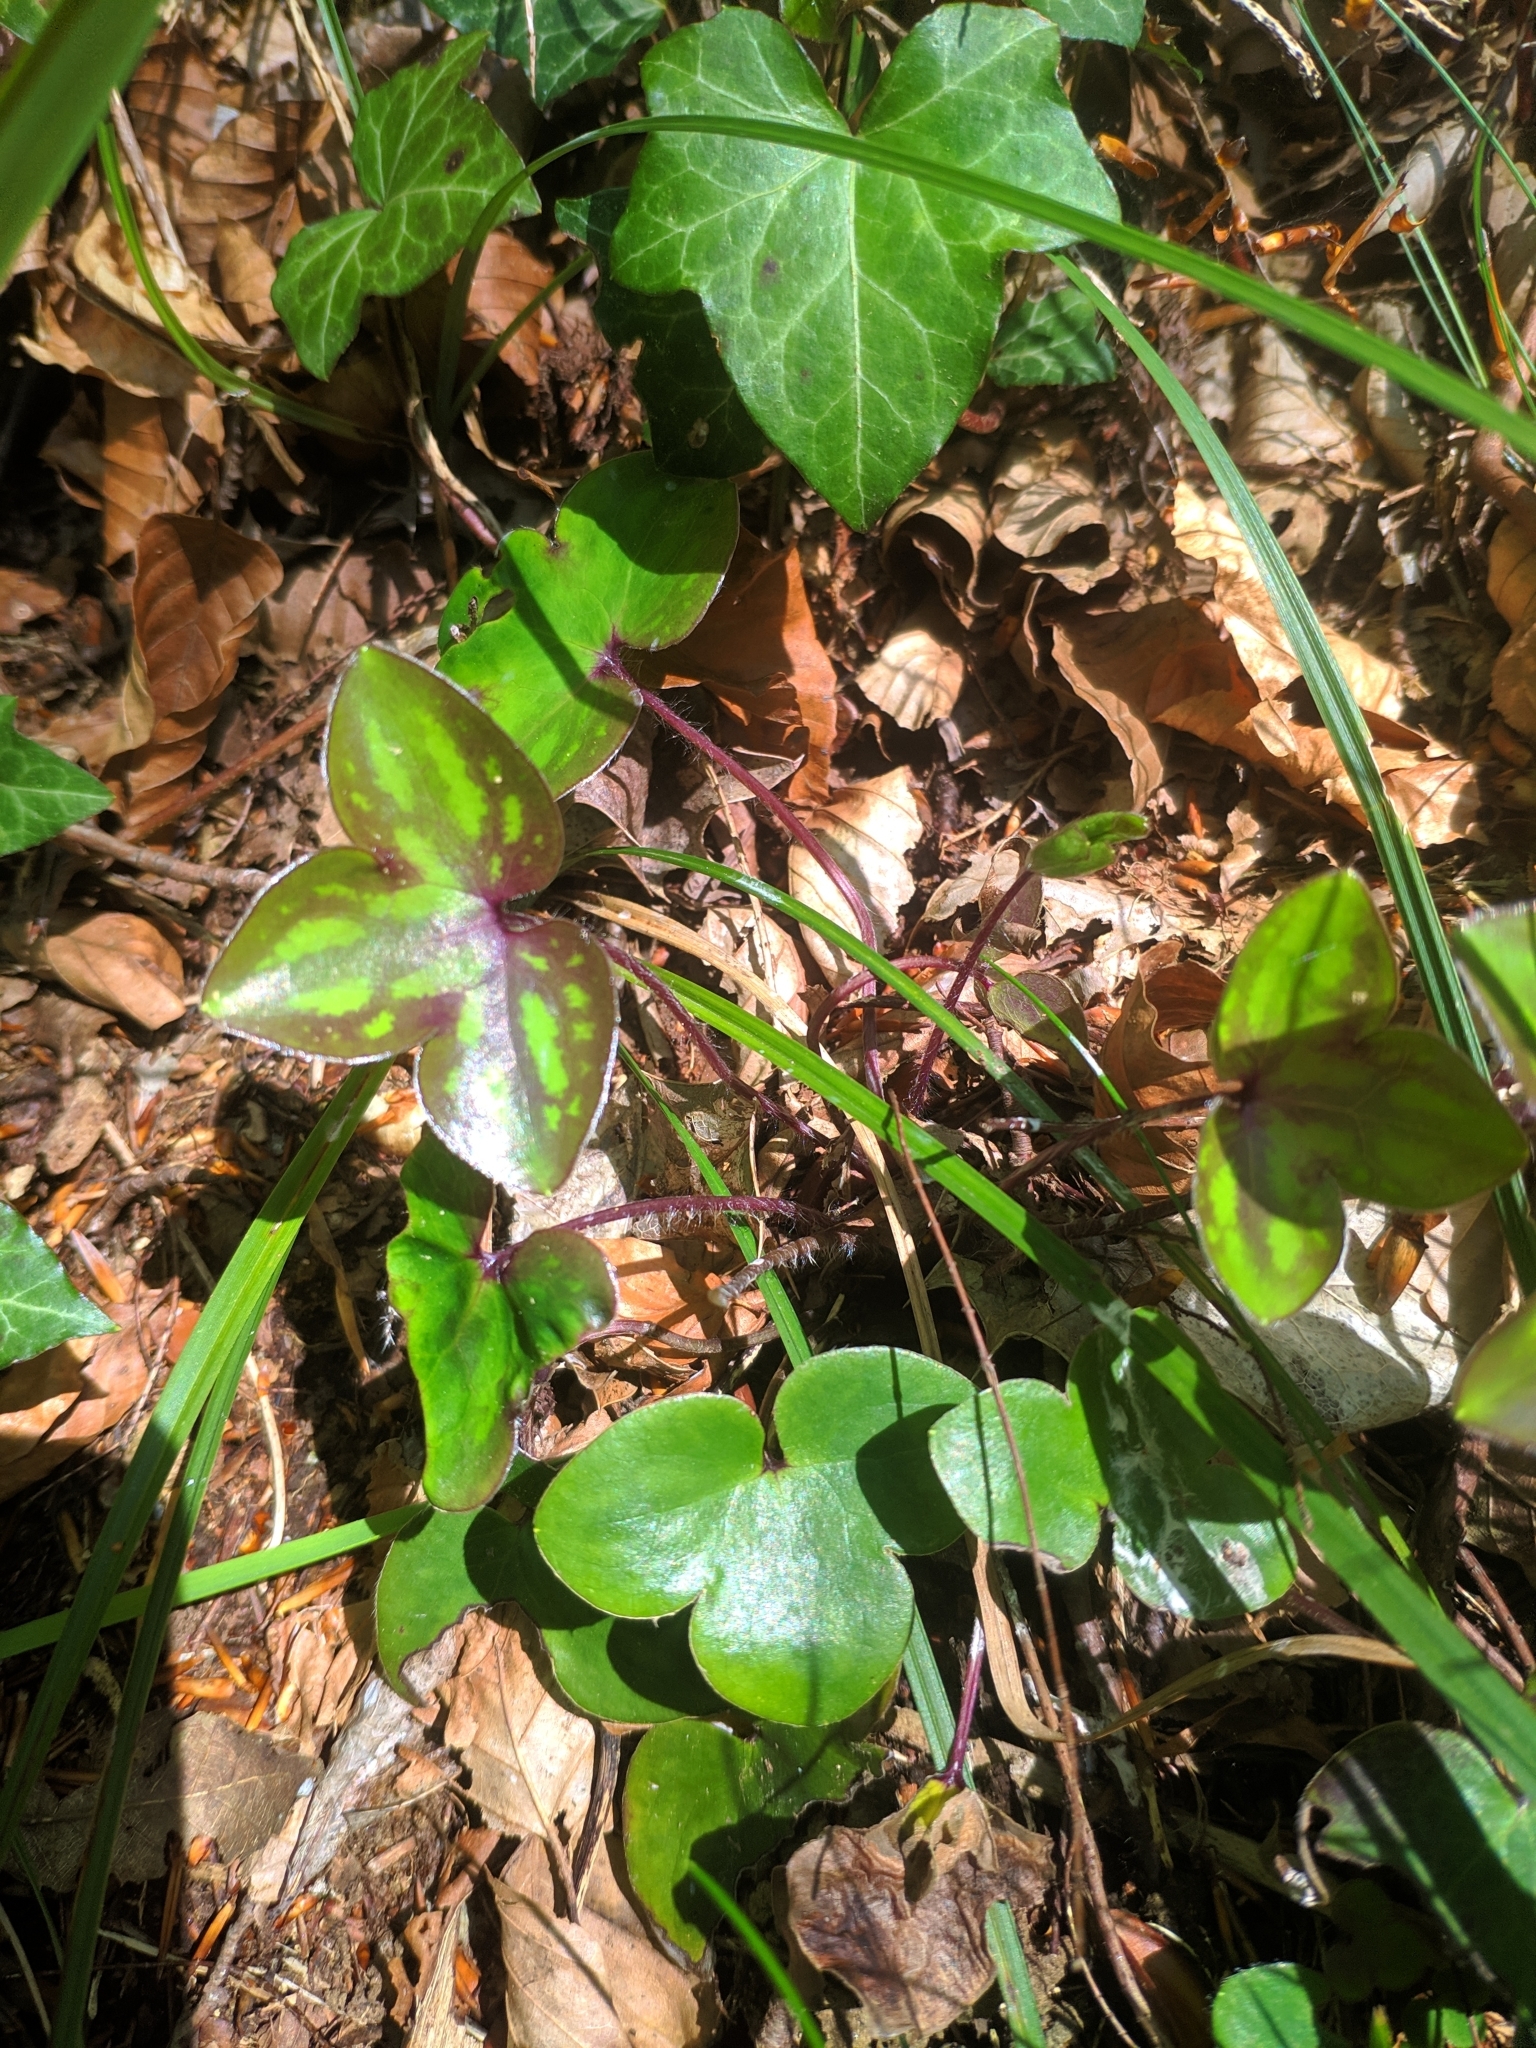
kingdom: Plantae
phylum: Tracheophyta
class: Magnoliopsida
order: Ranunculales
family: Ranunculaceae
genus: Hepatica
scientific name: Hepatica nobilis
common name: Liverleaf
